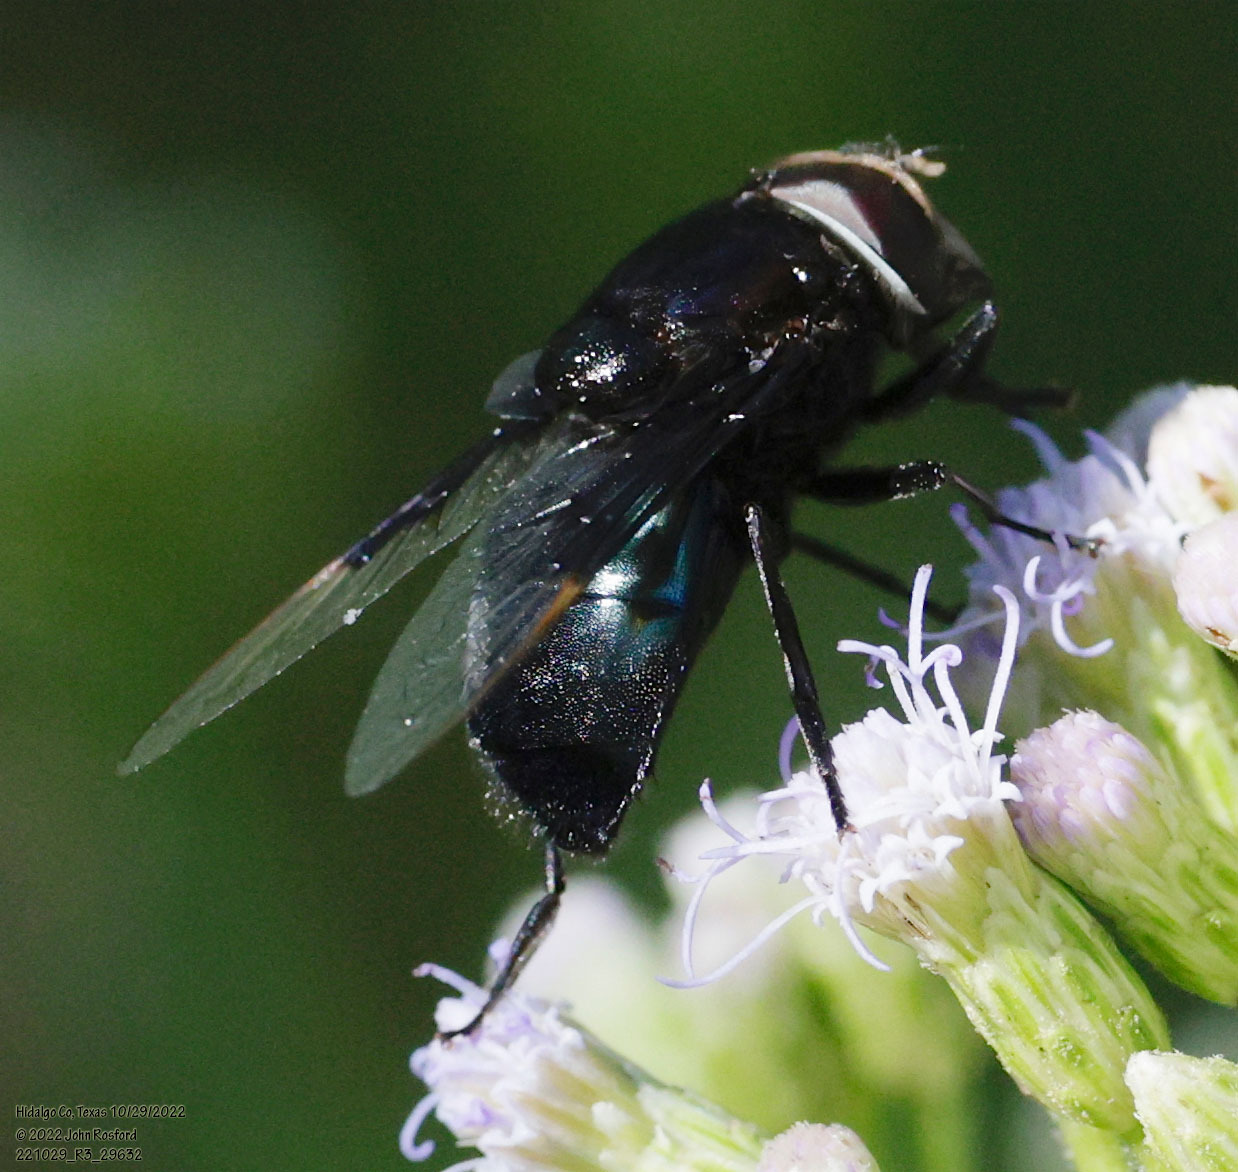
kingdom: Animalia
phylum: Arthropoda
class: Insecta
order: Diptera
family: Syrphidae
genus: Copestylum
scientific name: Copestylum
